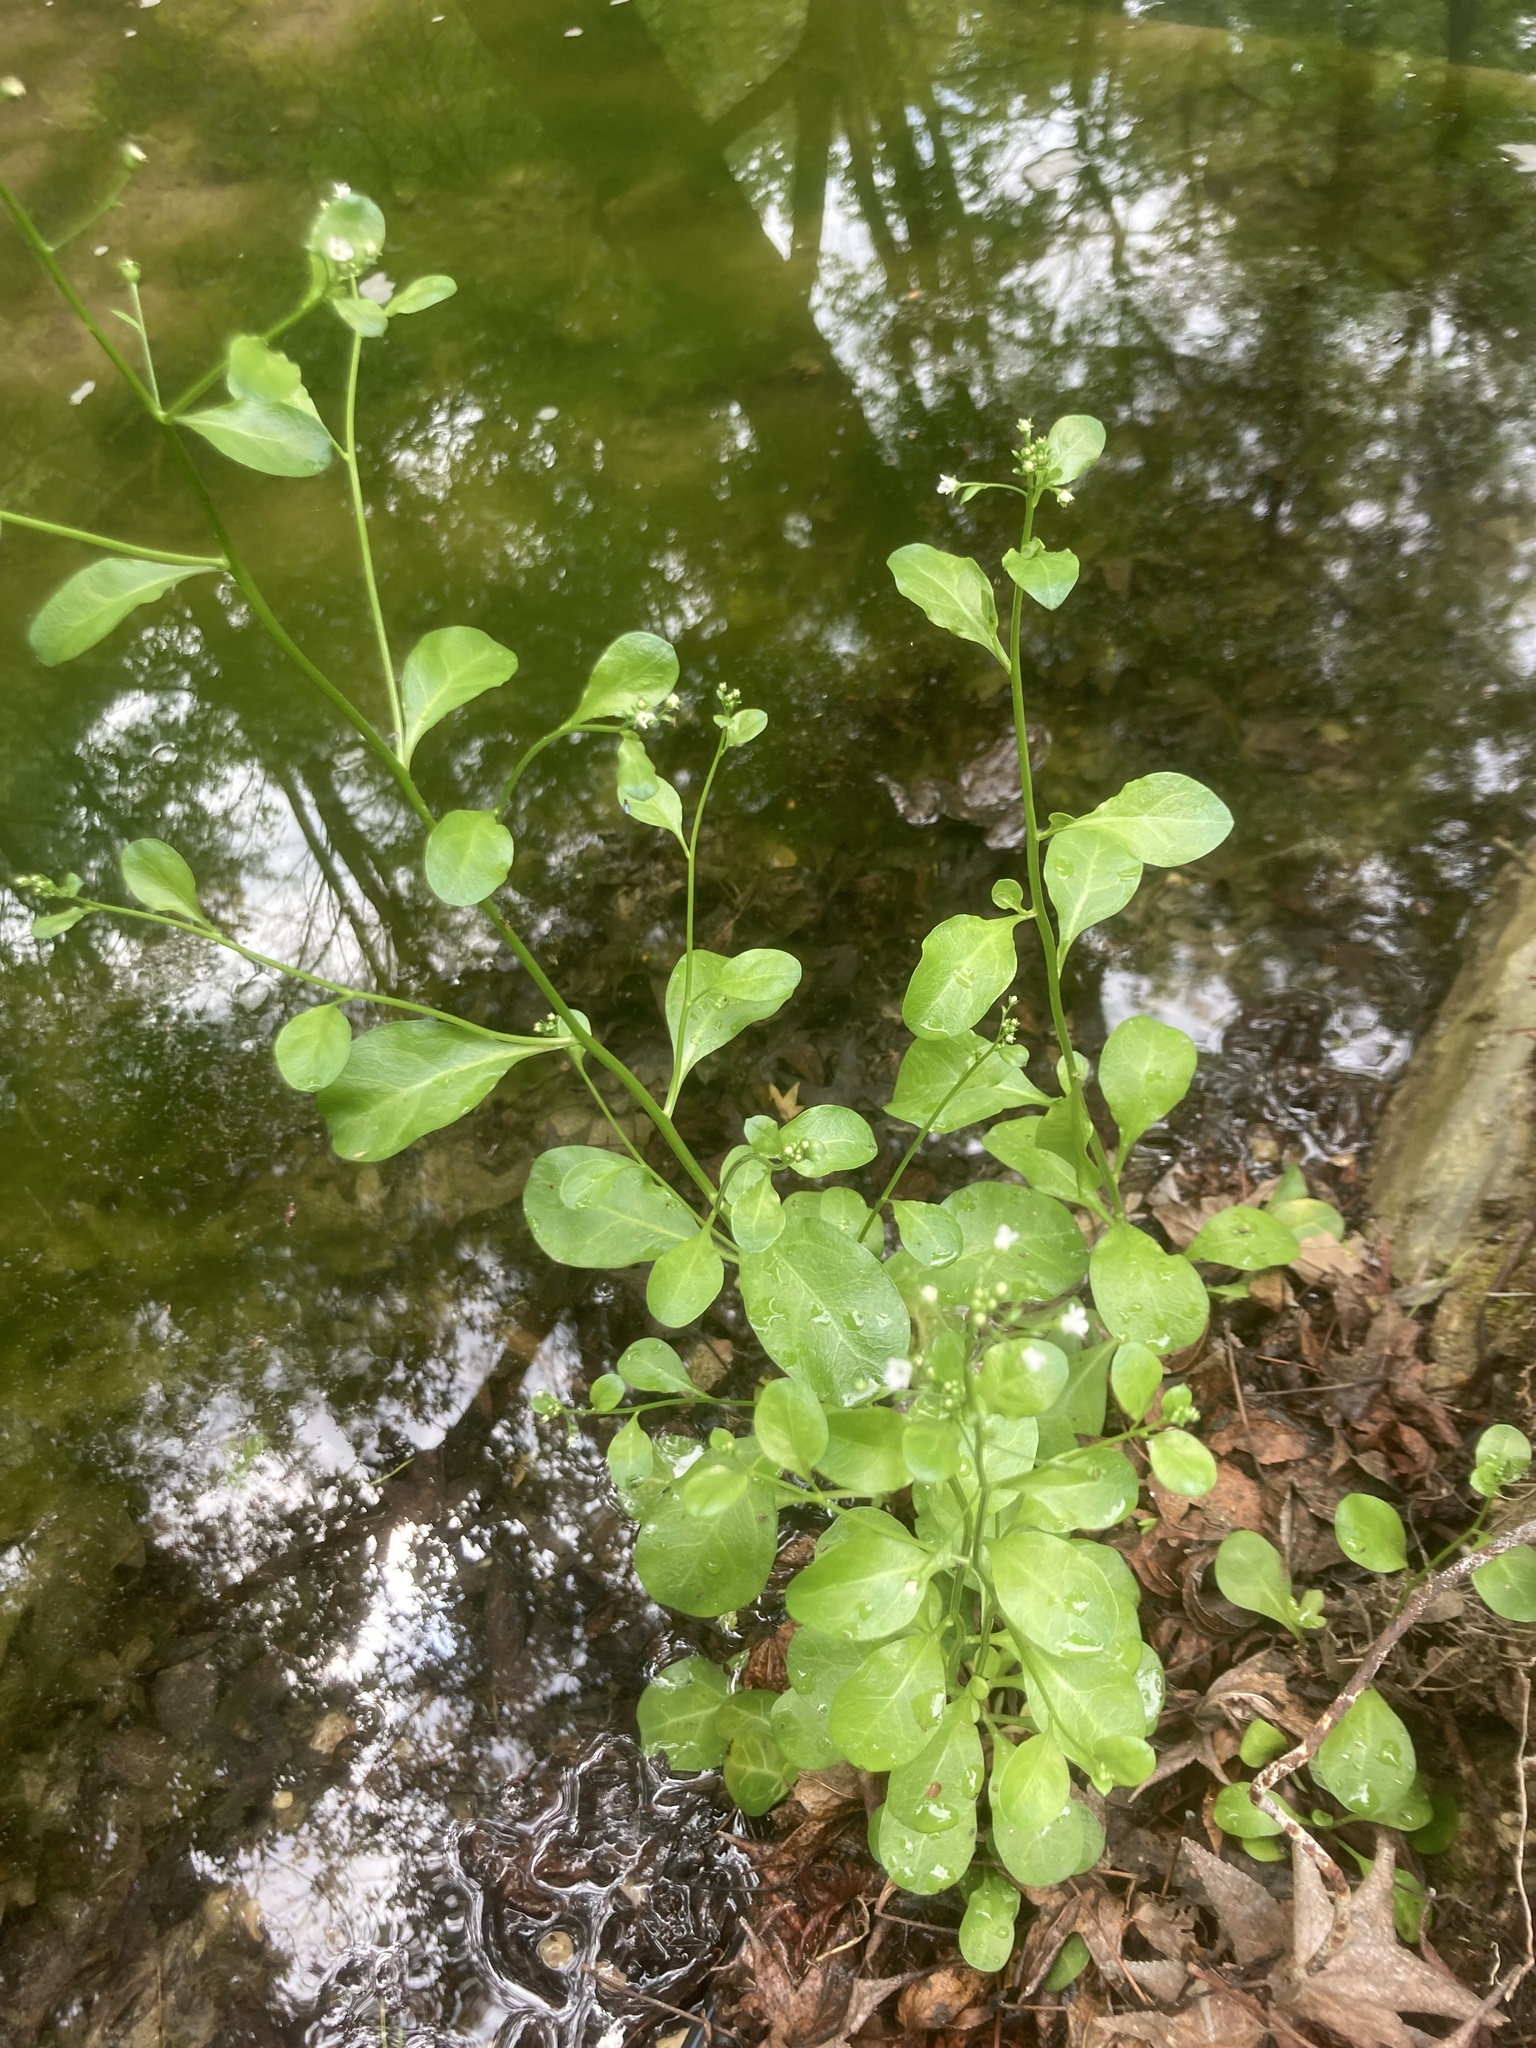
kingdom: Plantae
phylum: Tracheophyta
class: Magnoliopsida
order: Ericales
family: Primulaceae
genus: Samolus
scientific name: Samolus valerandi
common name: Brookweed
